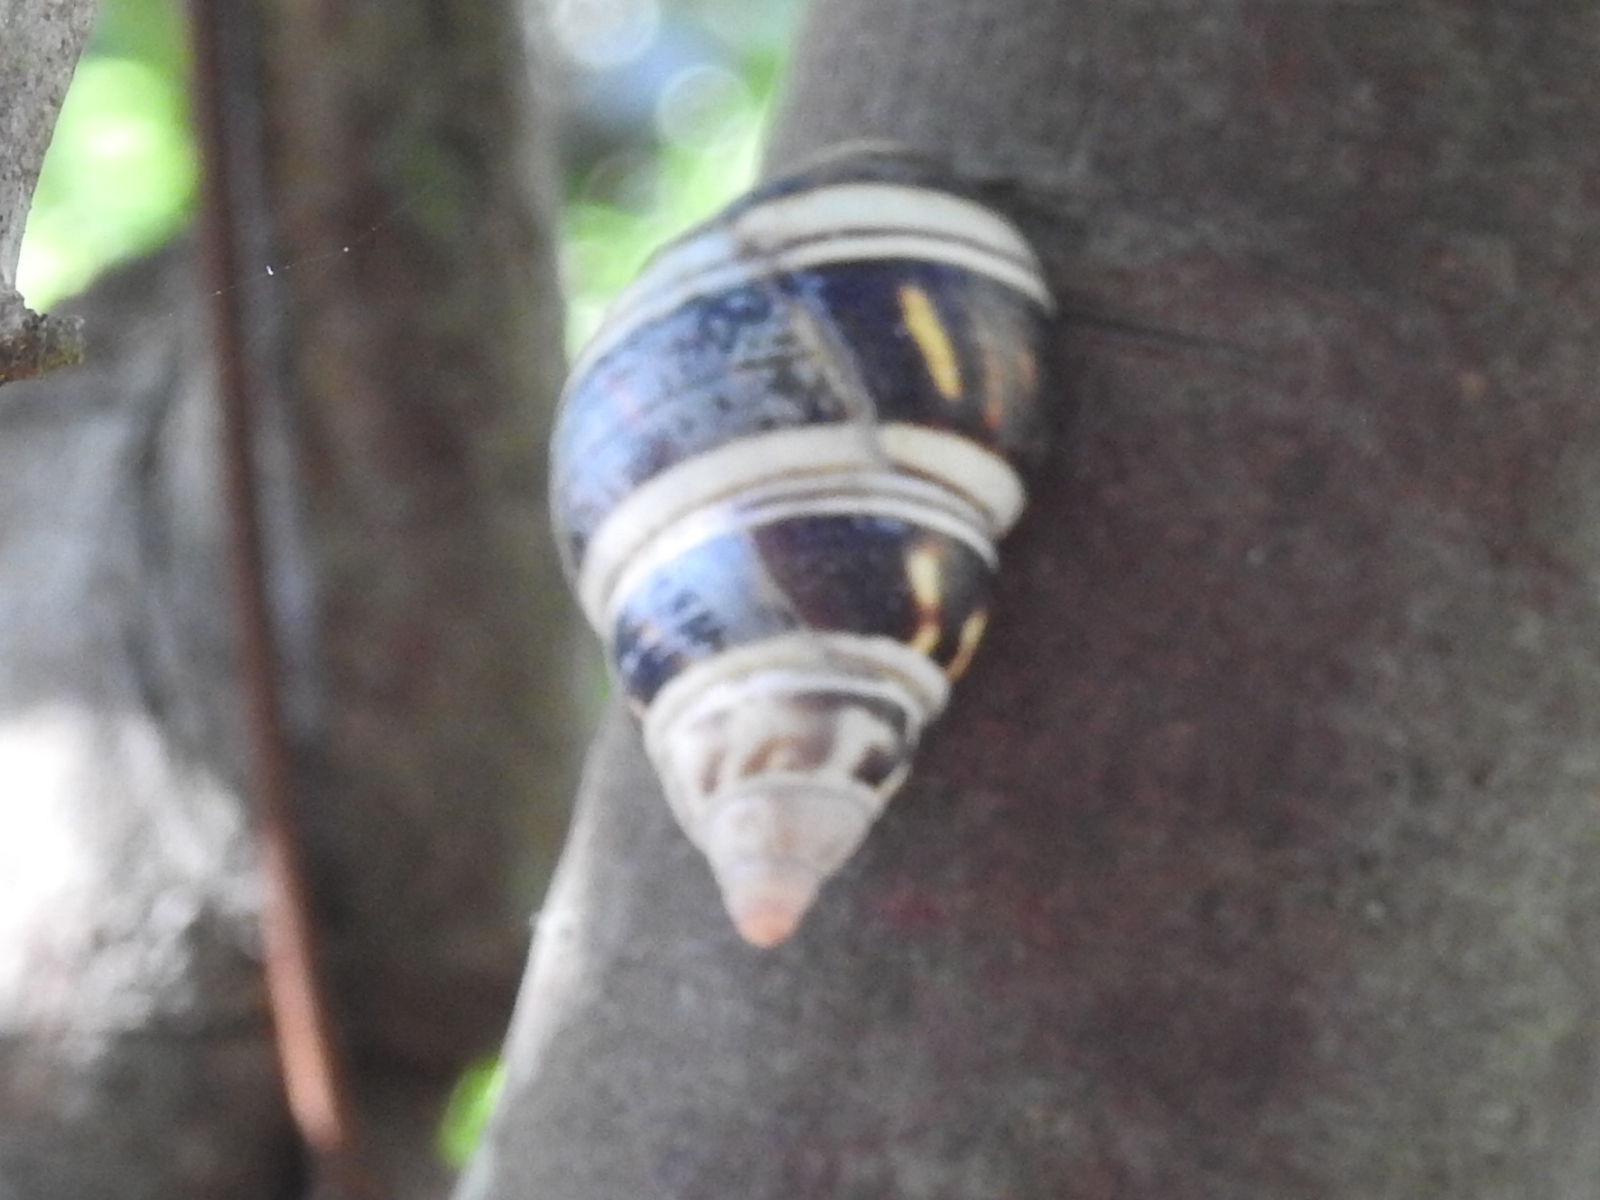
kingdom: Animalia
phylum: Mollusca
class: Gastropoda
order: Stylommatophora
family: Orthalicidae
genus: Liguus
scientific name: Liguus fasciatus
